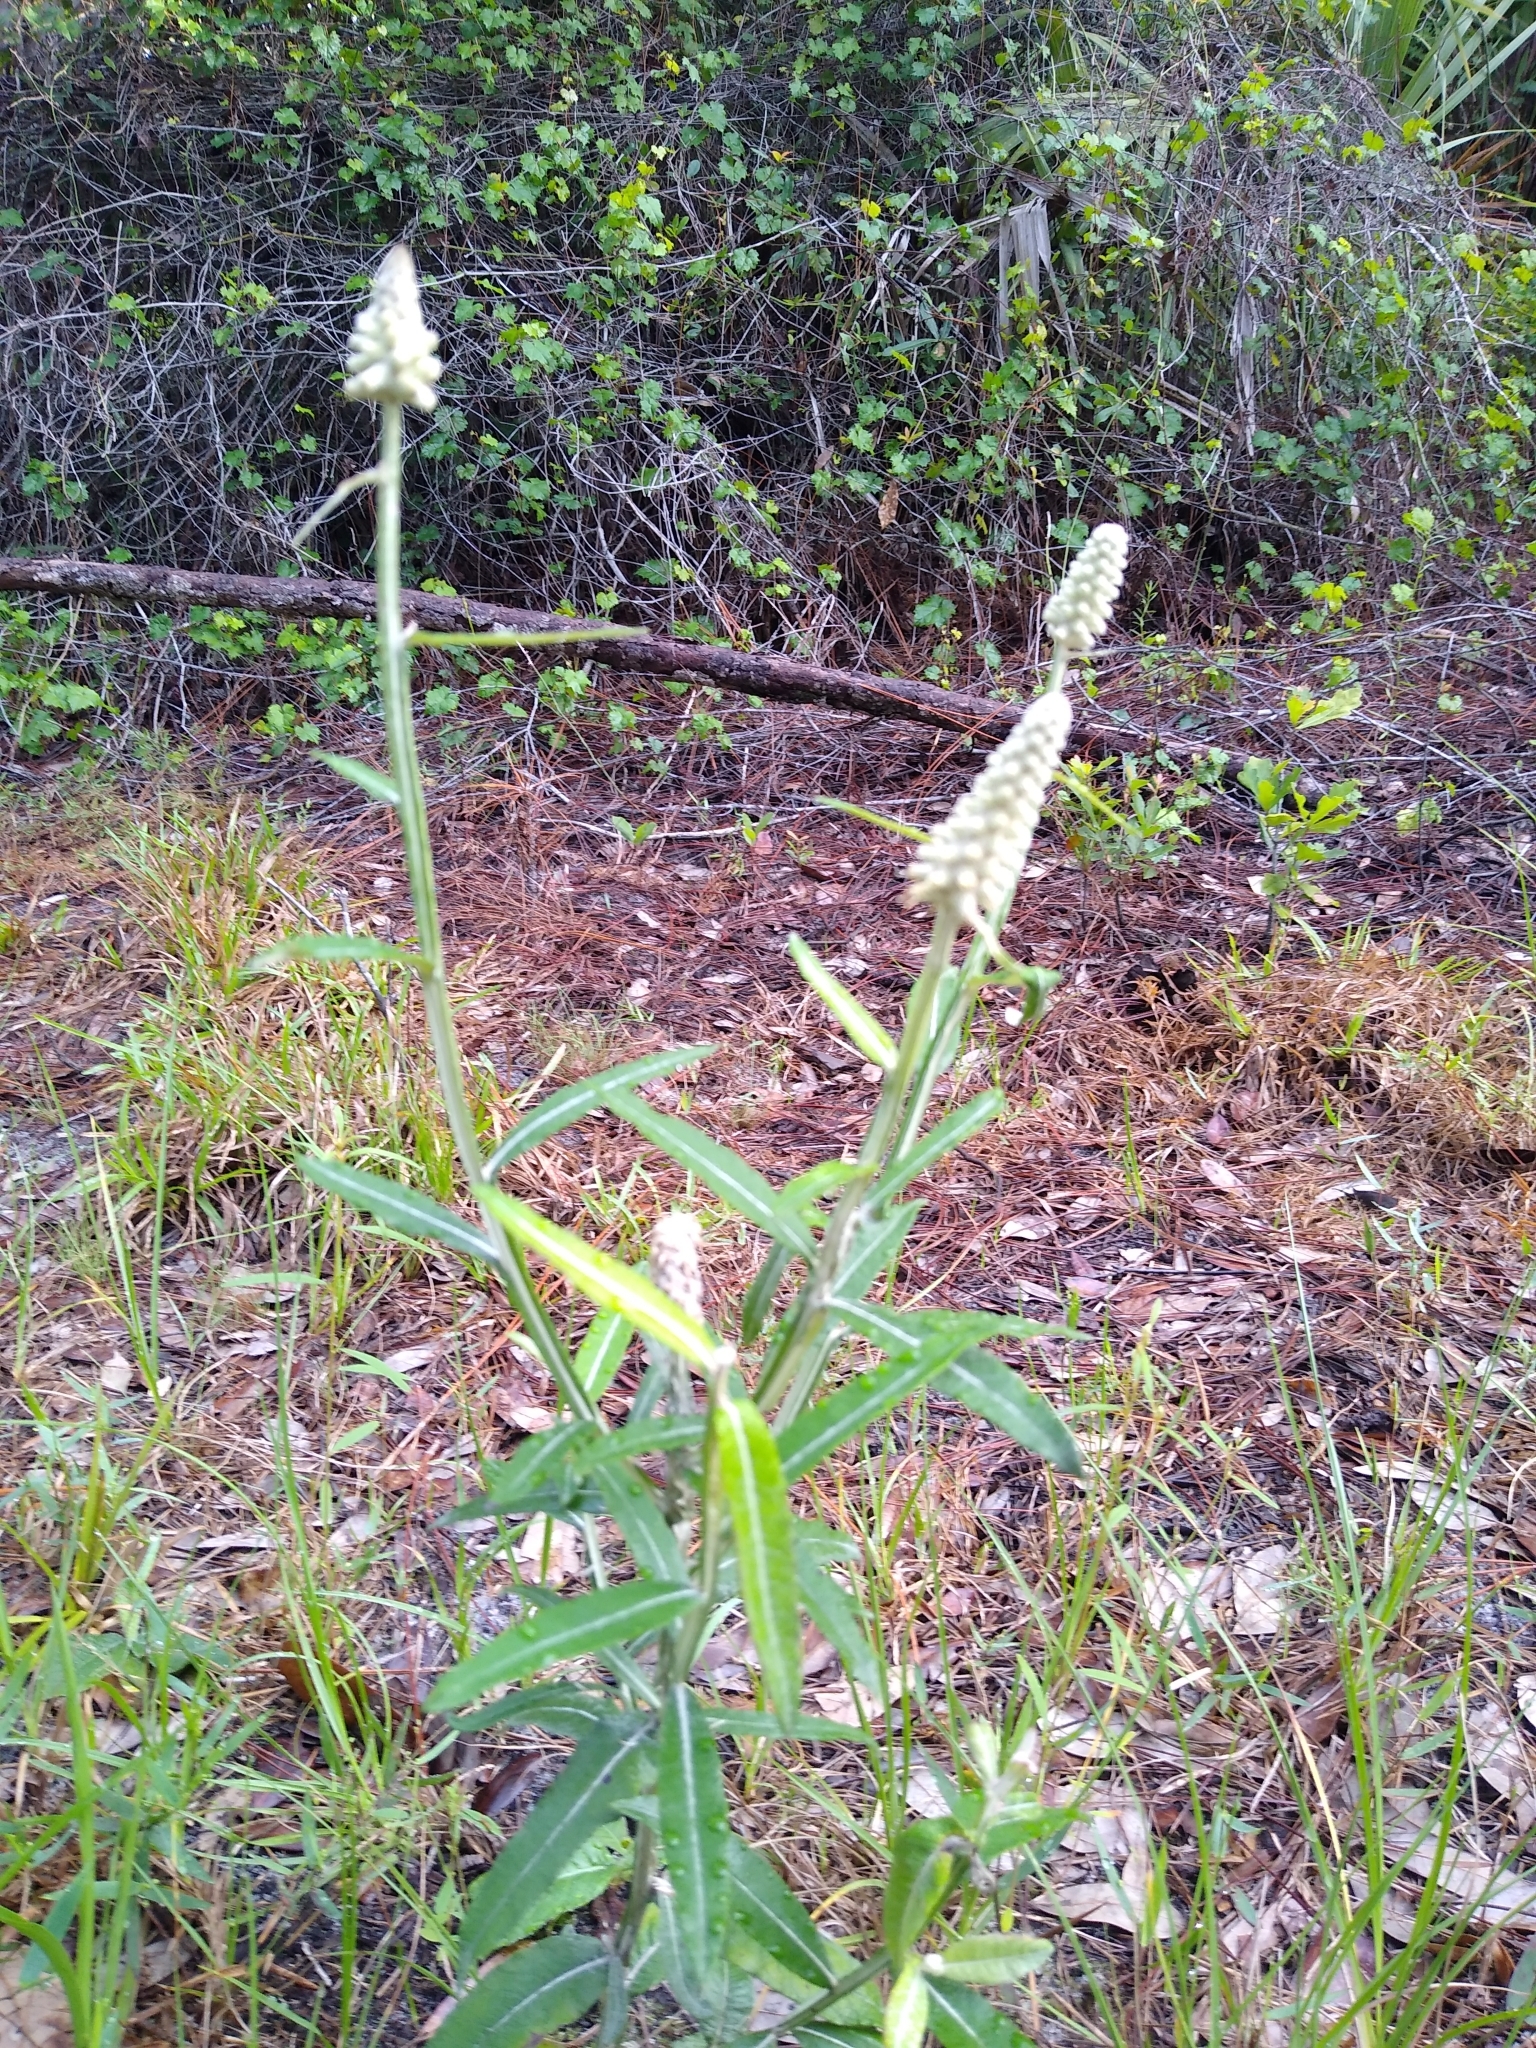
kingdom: Plantae
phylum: Tracheophyta
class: Magnoliopsida
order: Asterales
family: Asteraceae
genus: Pterocaulon
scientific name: Pterocaulon pycnostachyum
